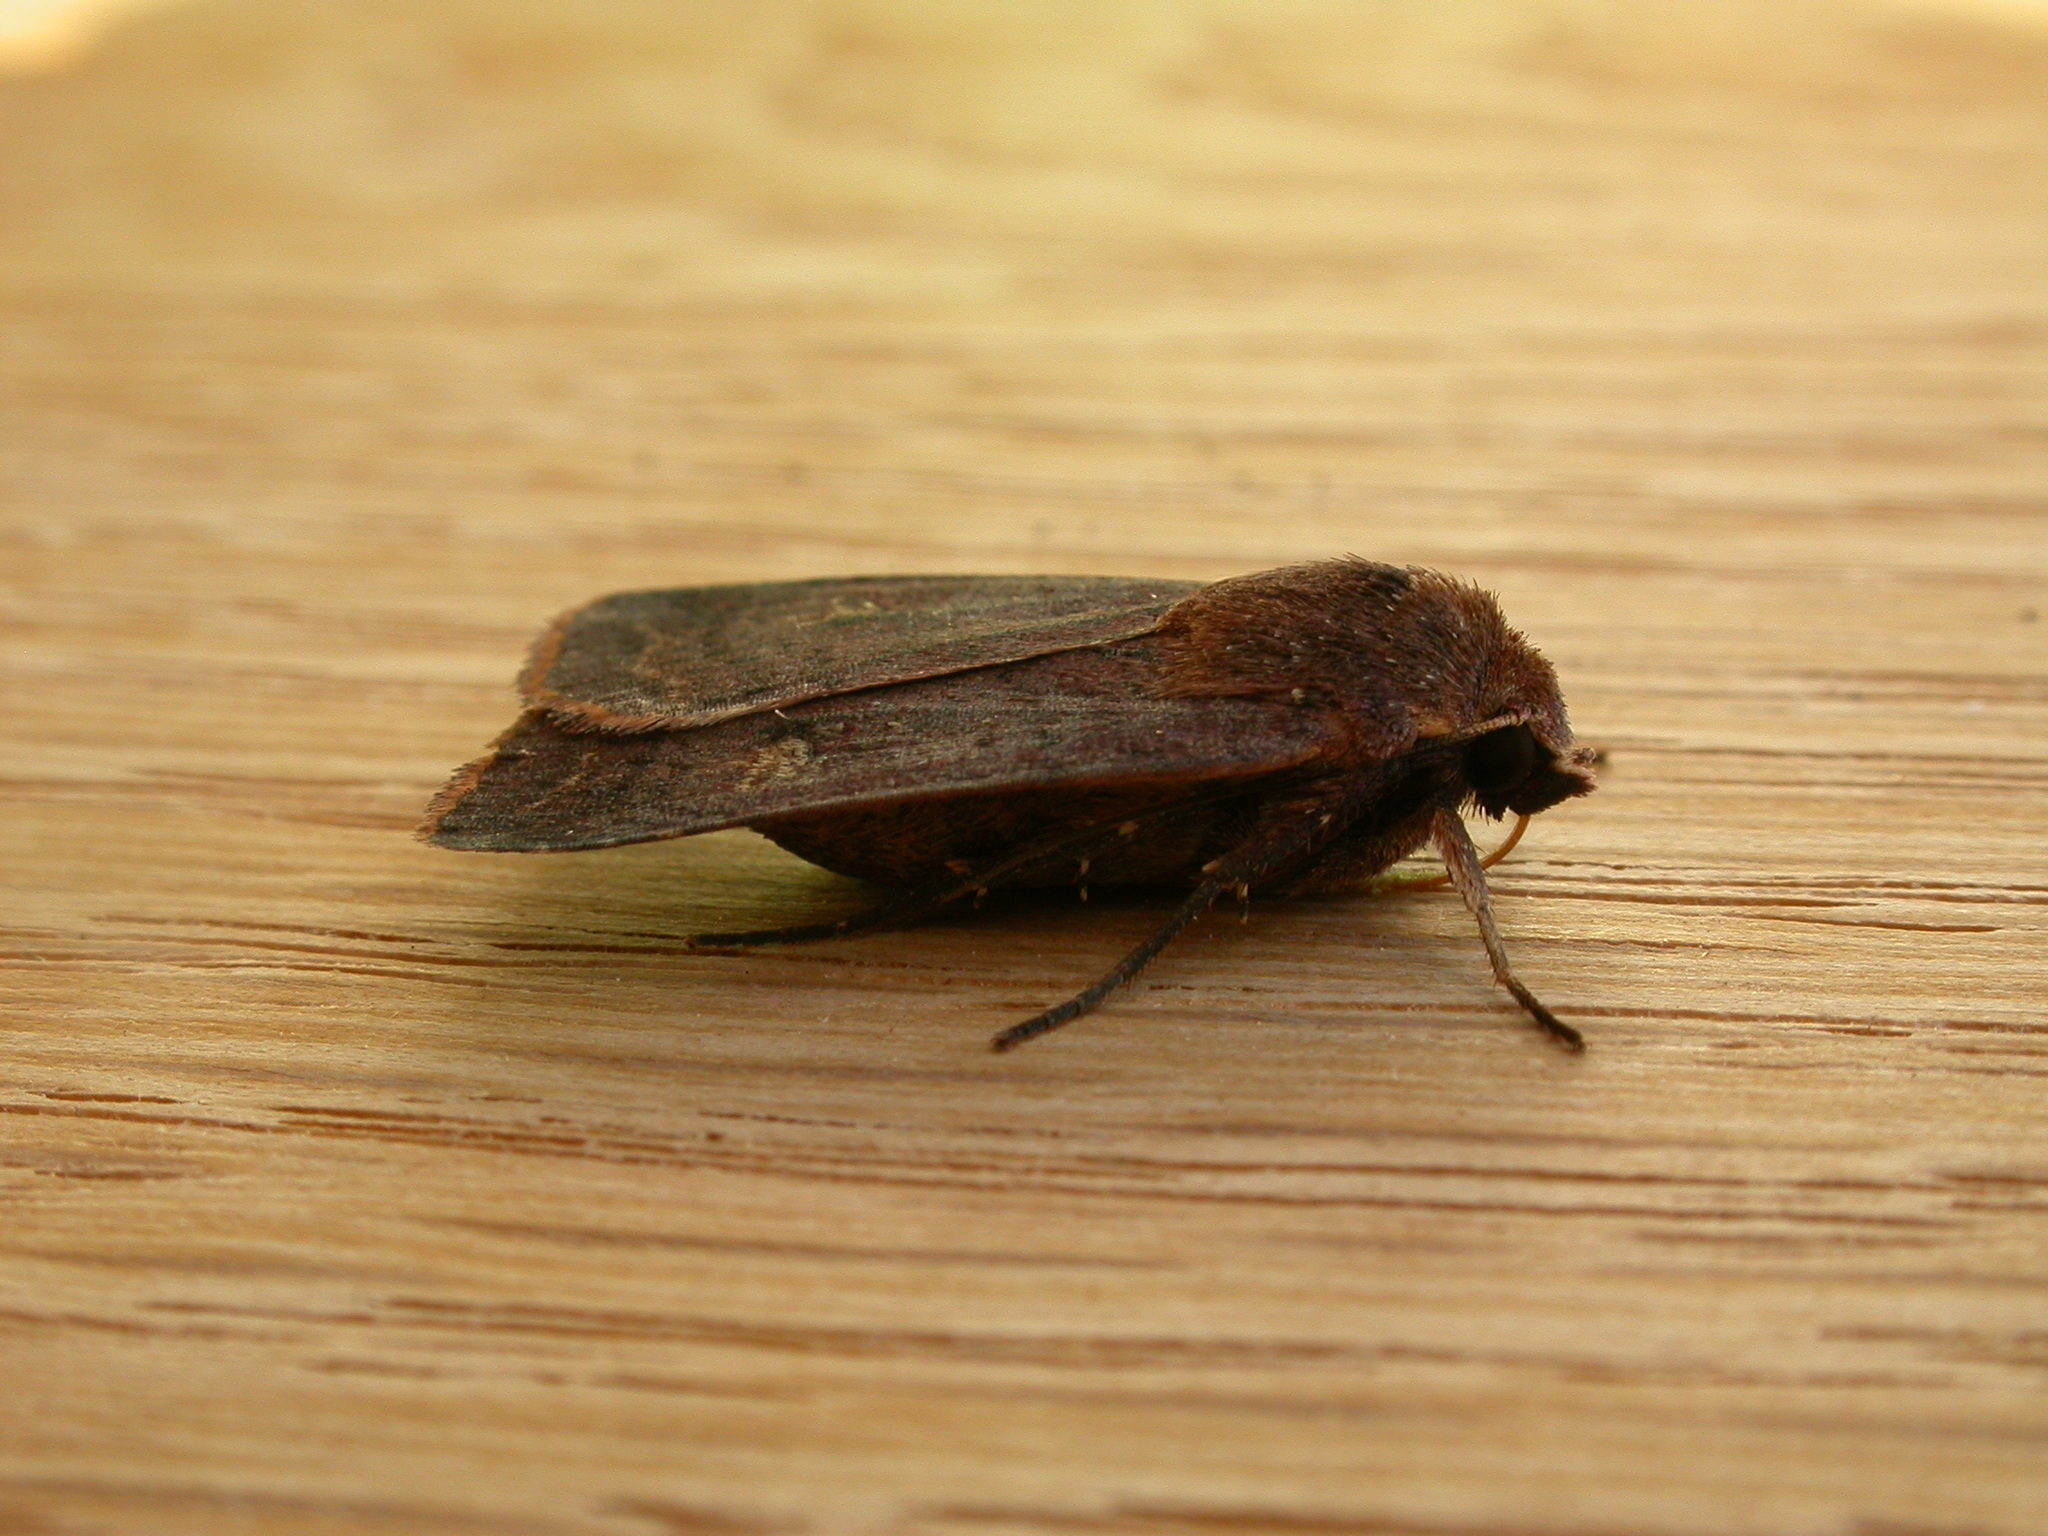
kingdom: Animalia
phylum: Arthropoda
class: Insecta
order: Lepidoptera
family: Noctuidae
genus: Diarsia
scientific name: Diarsia intermixta
